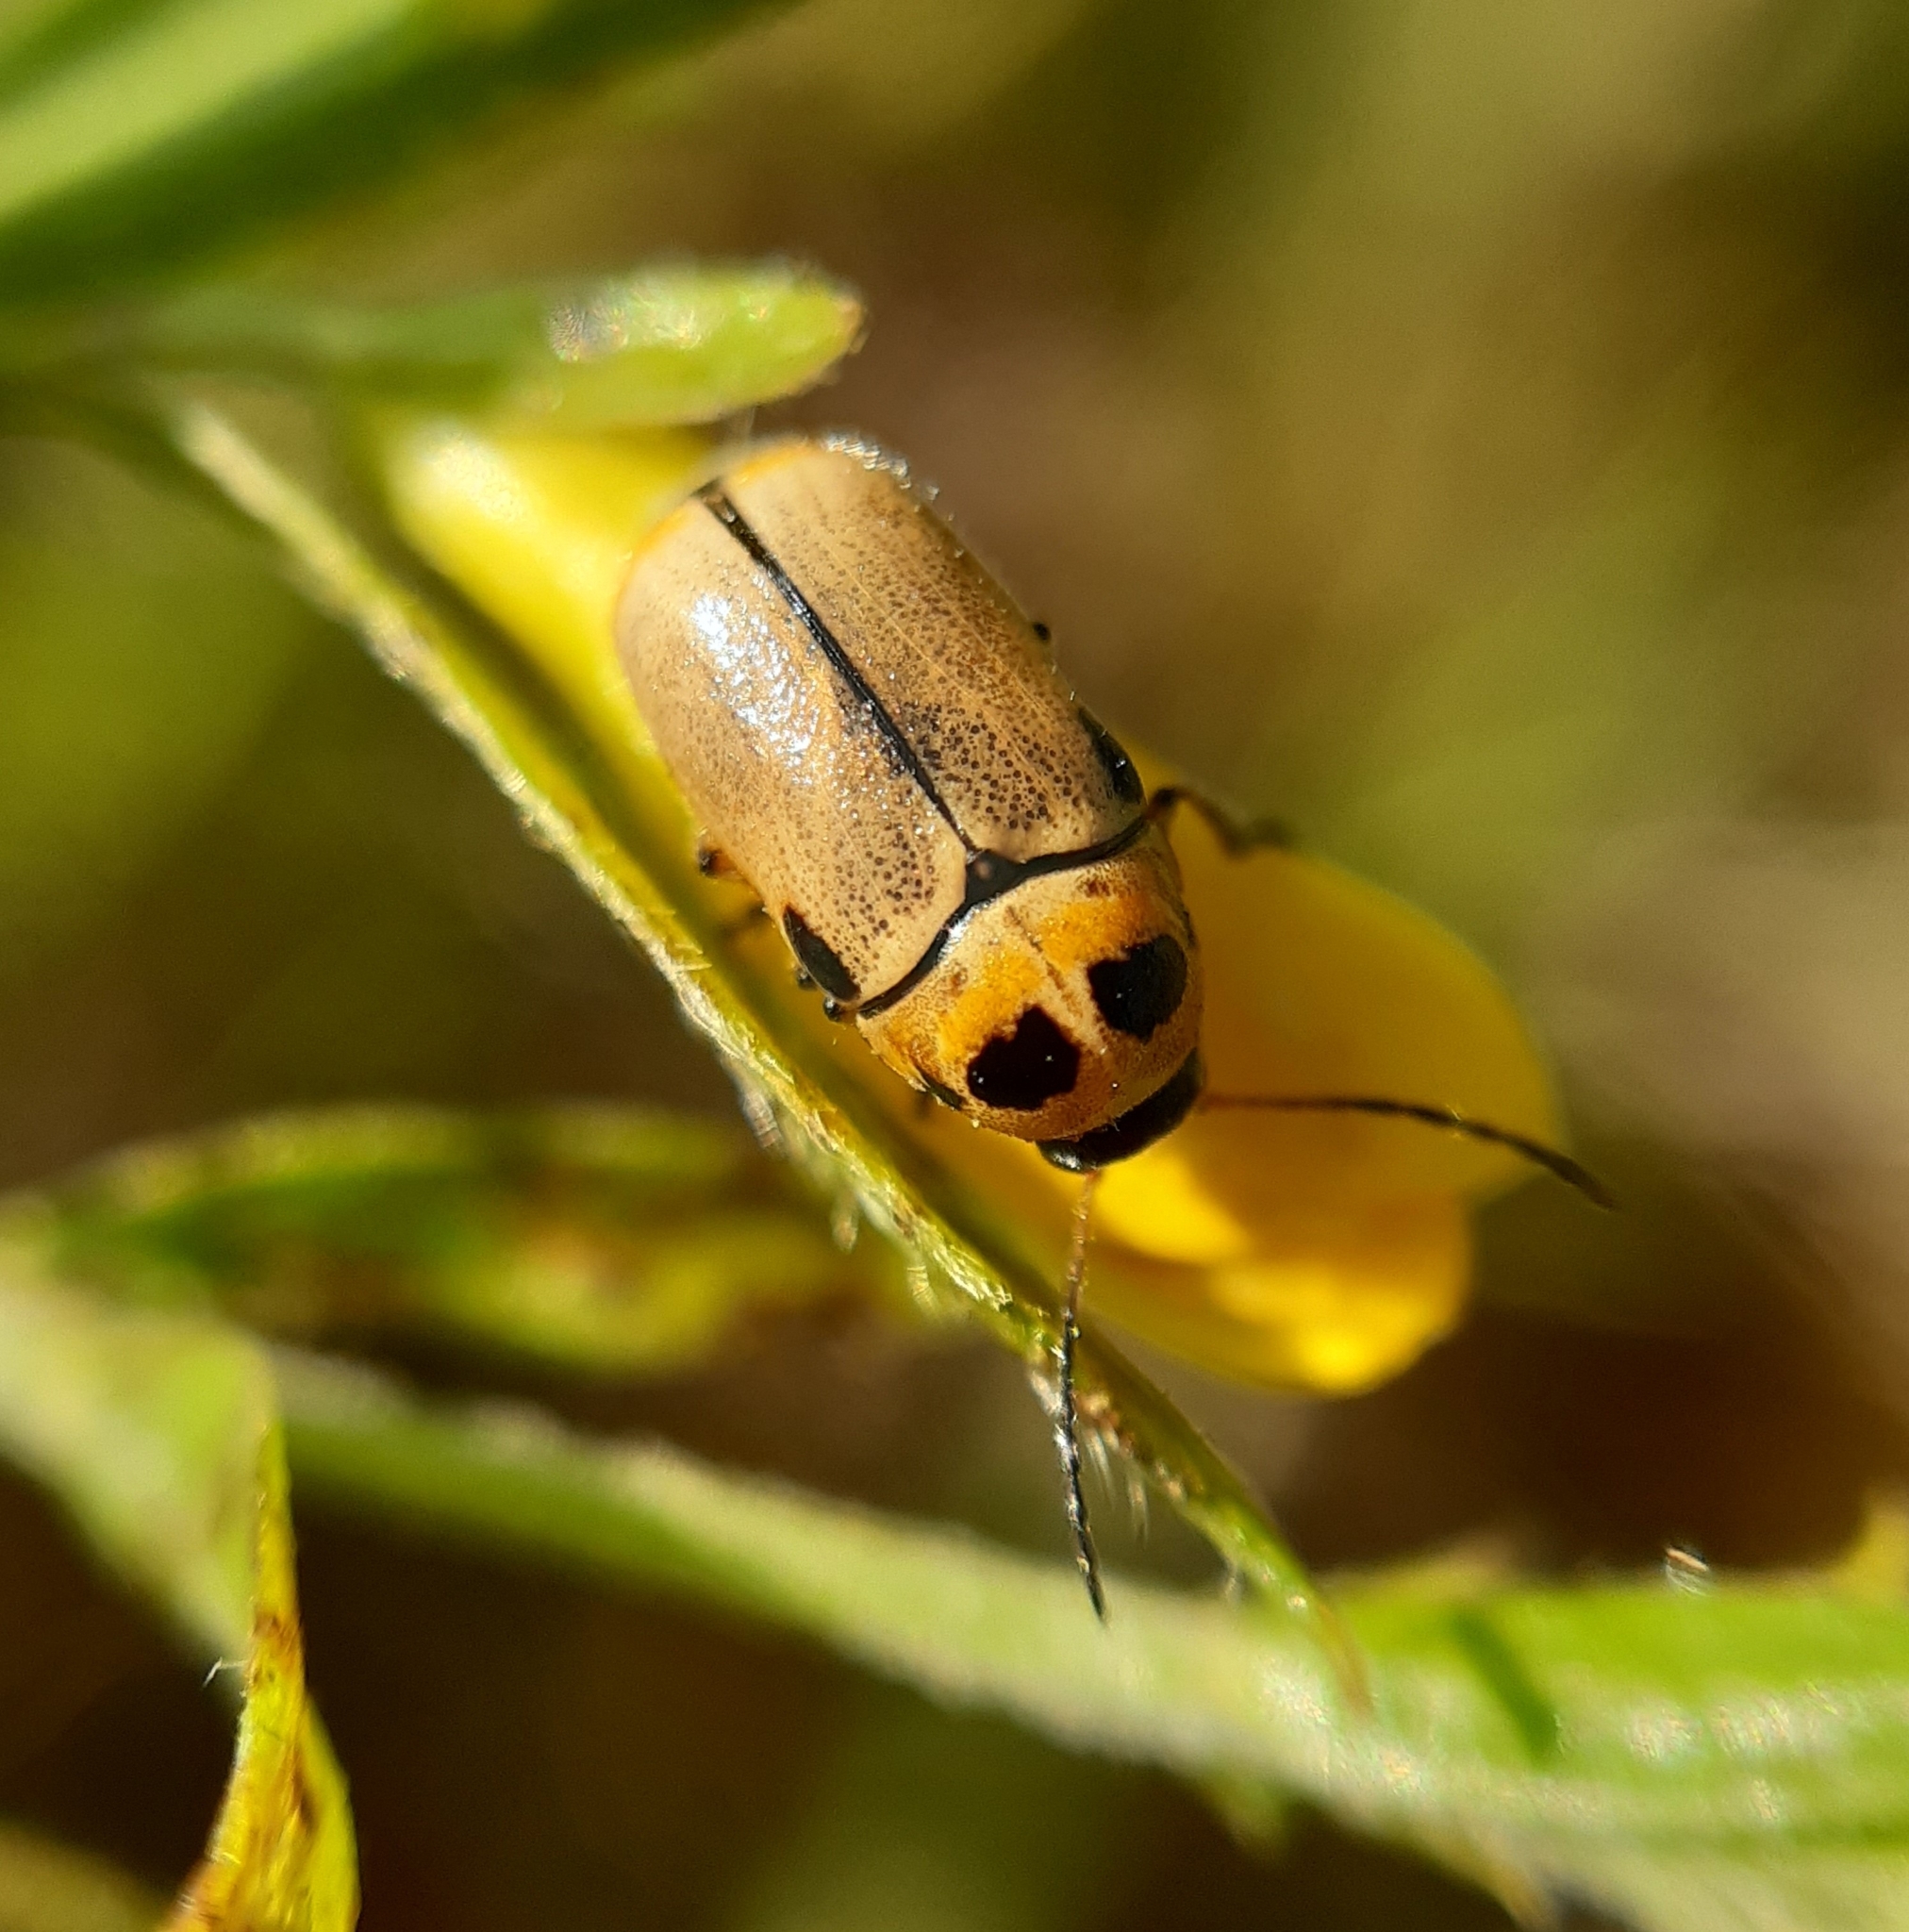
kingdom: Animalia
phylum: Arthropoda
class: Insecta
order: Coleoptera
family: Chrysomelidae
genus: Cryptocephalus
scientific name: Cryptocephalus quatuordecimmaculatus
